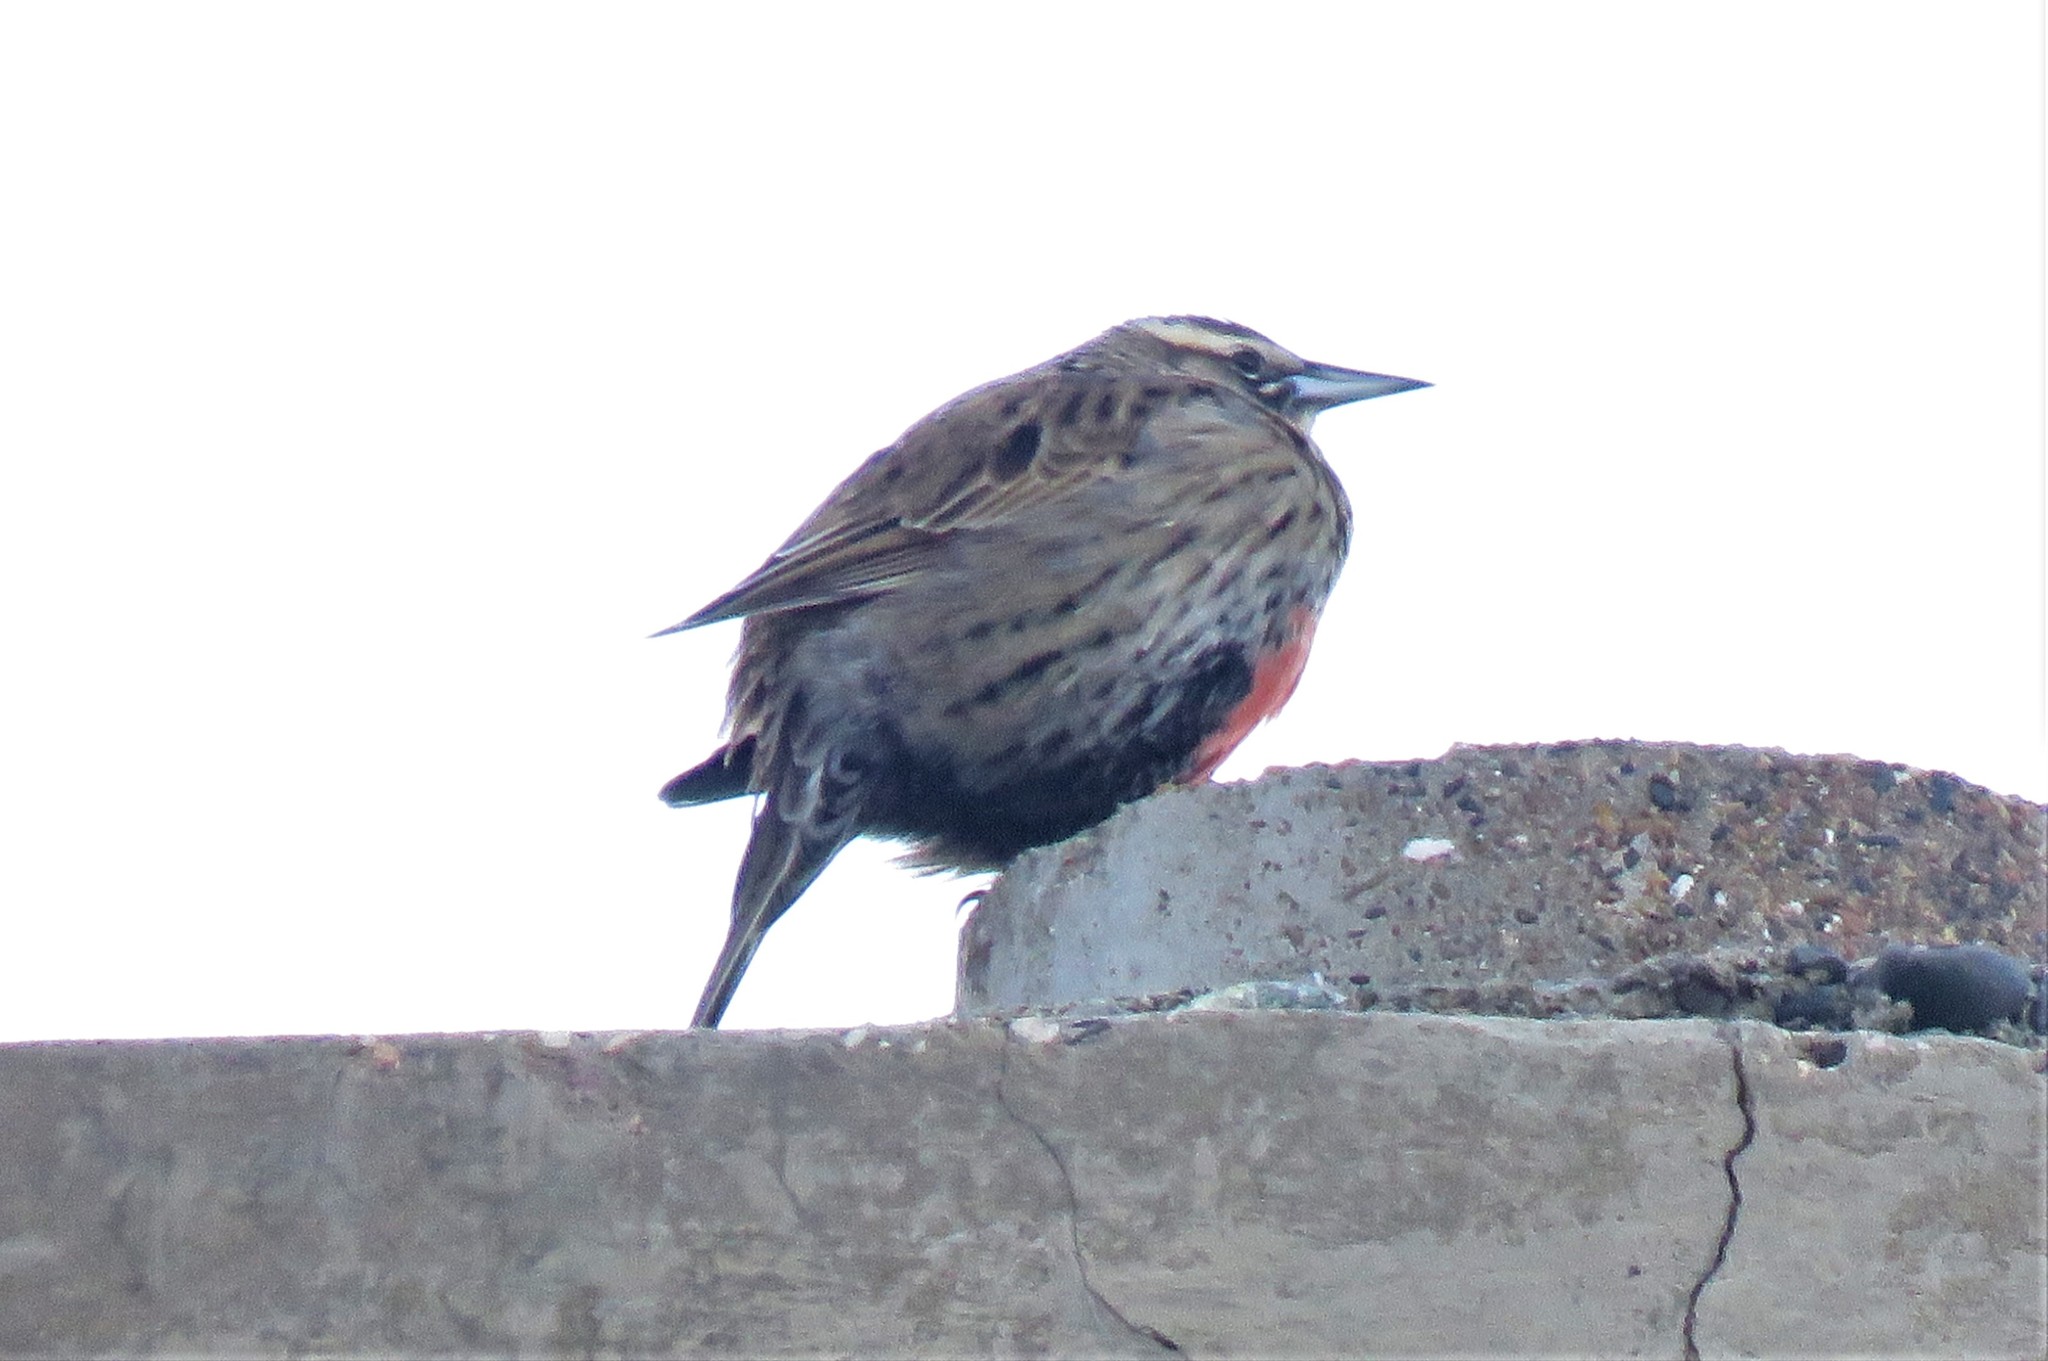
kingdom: Animalia
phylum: Chordata
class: Aves
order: Passeriformes
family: Icteridae
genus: Sturnella
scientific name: Sturnella loyca
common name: Long-tailed meadowlark
